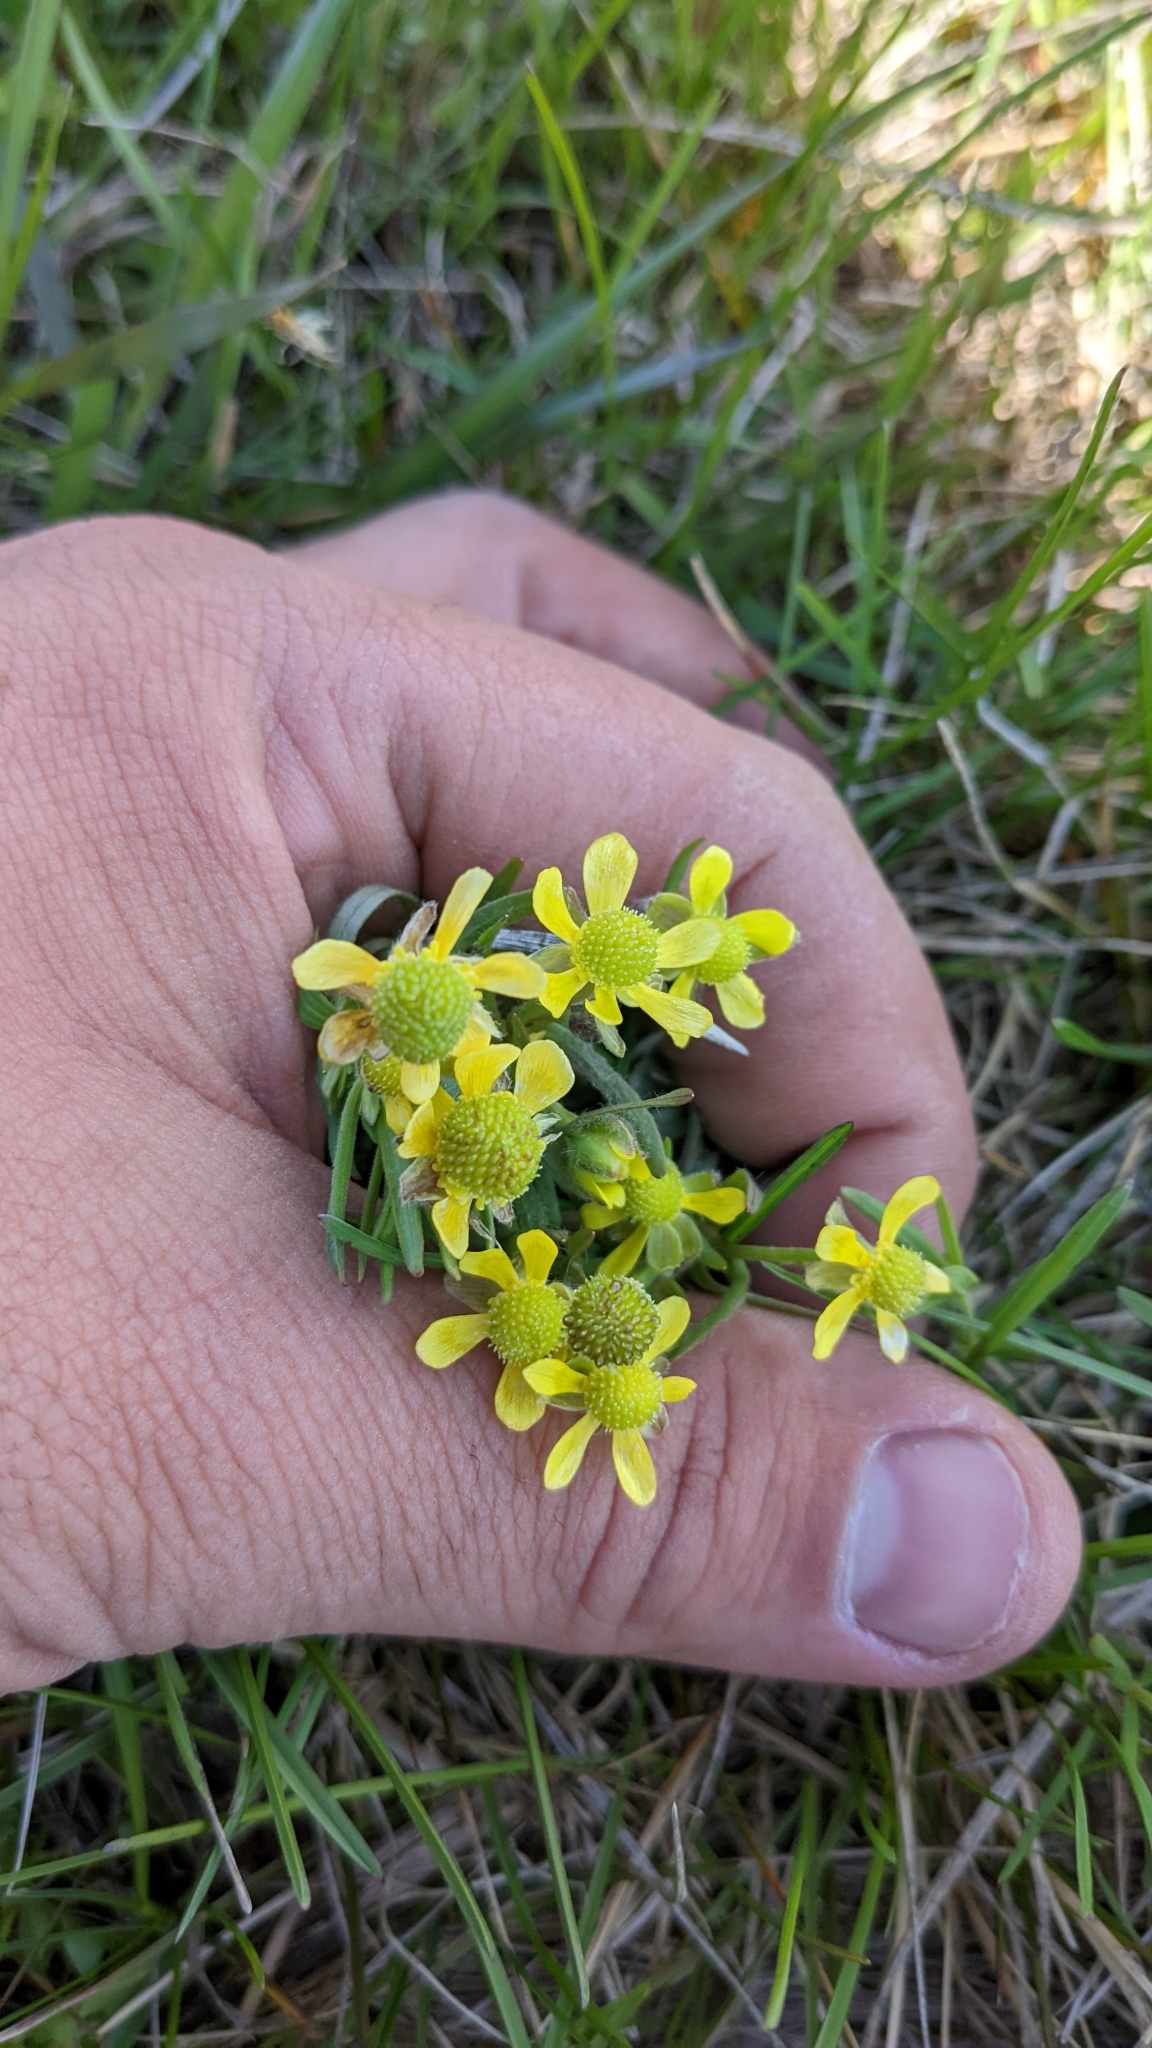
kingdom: Plantae
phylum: Tracheophyta
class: Magnoliopsida
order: Ranunculales
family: Ranunculaceae
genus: Ranunculus
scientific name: Ranunculus rhomboideus
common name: Prairie buttercup
